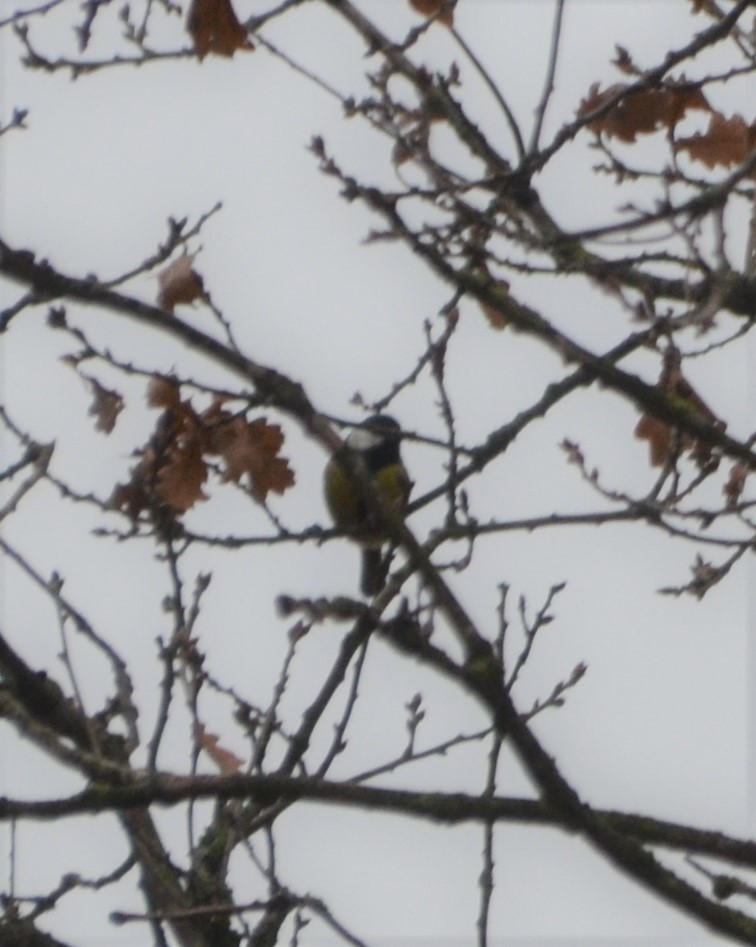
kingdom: Animalia
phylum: Chordata
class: Aves
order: Passeriformes
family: Paridae
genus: Parus
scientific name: Parus major
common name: Great tit
